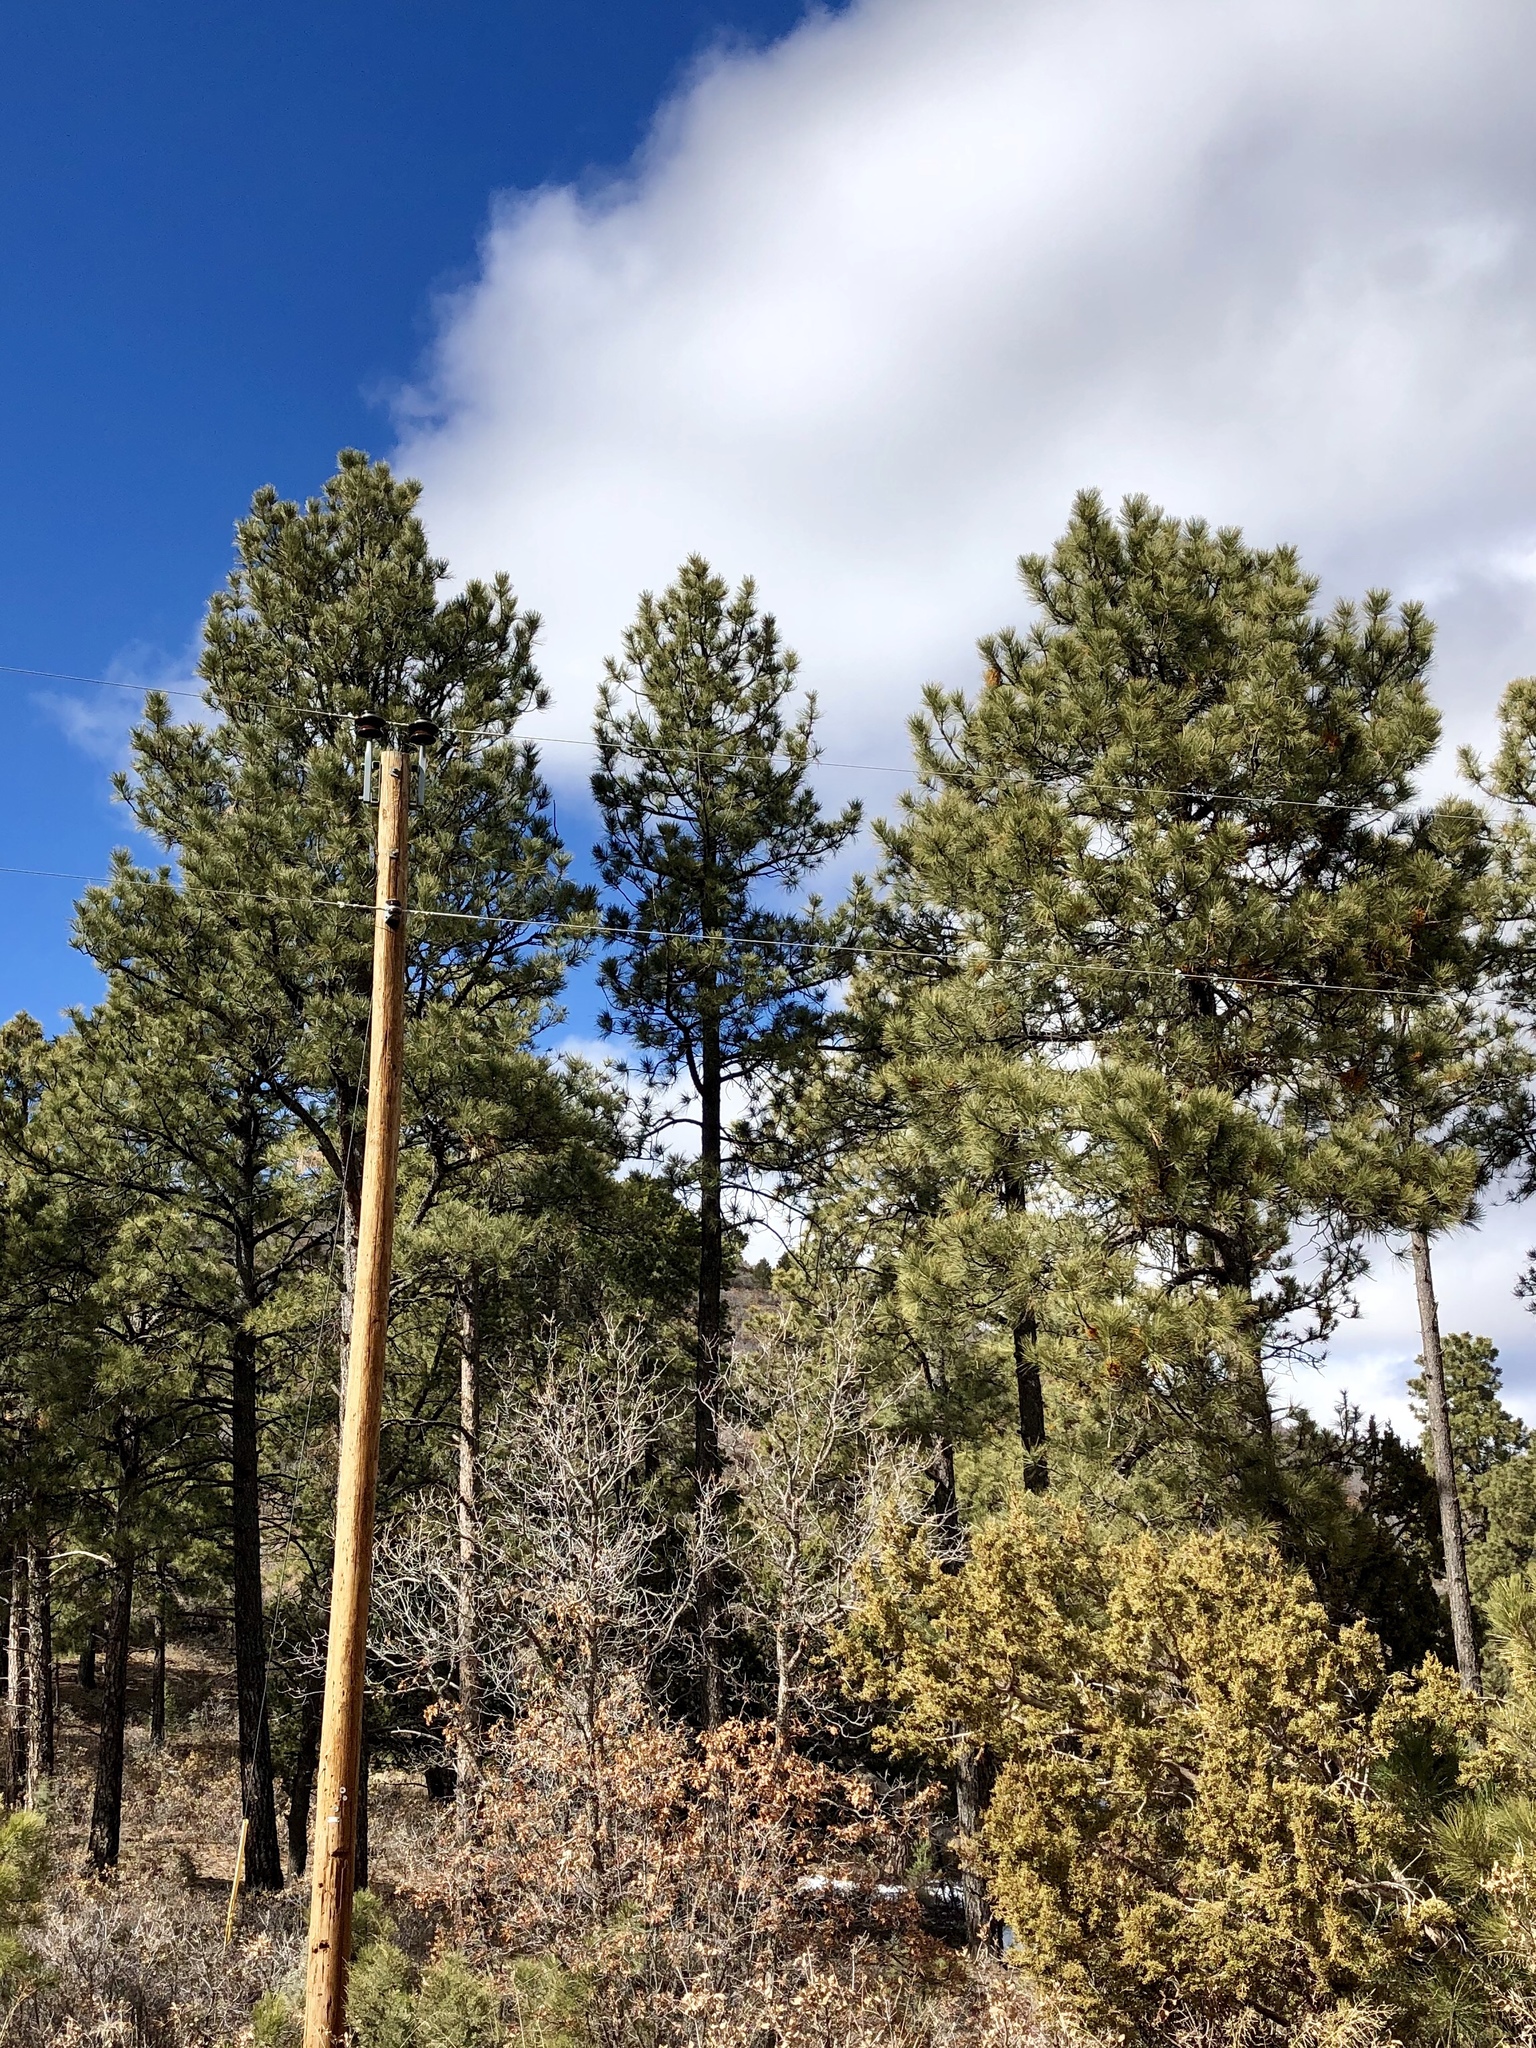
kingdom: Plantae
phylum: Tracheophyta
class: Pinopsida
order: Pinales
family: Pinaceae
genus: Pinus
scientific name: Pinus ponderosa
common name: Western yellow-pine
